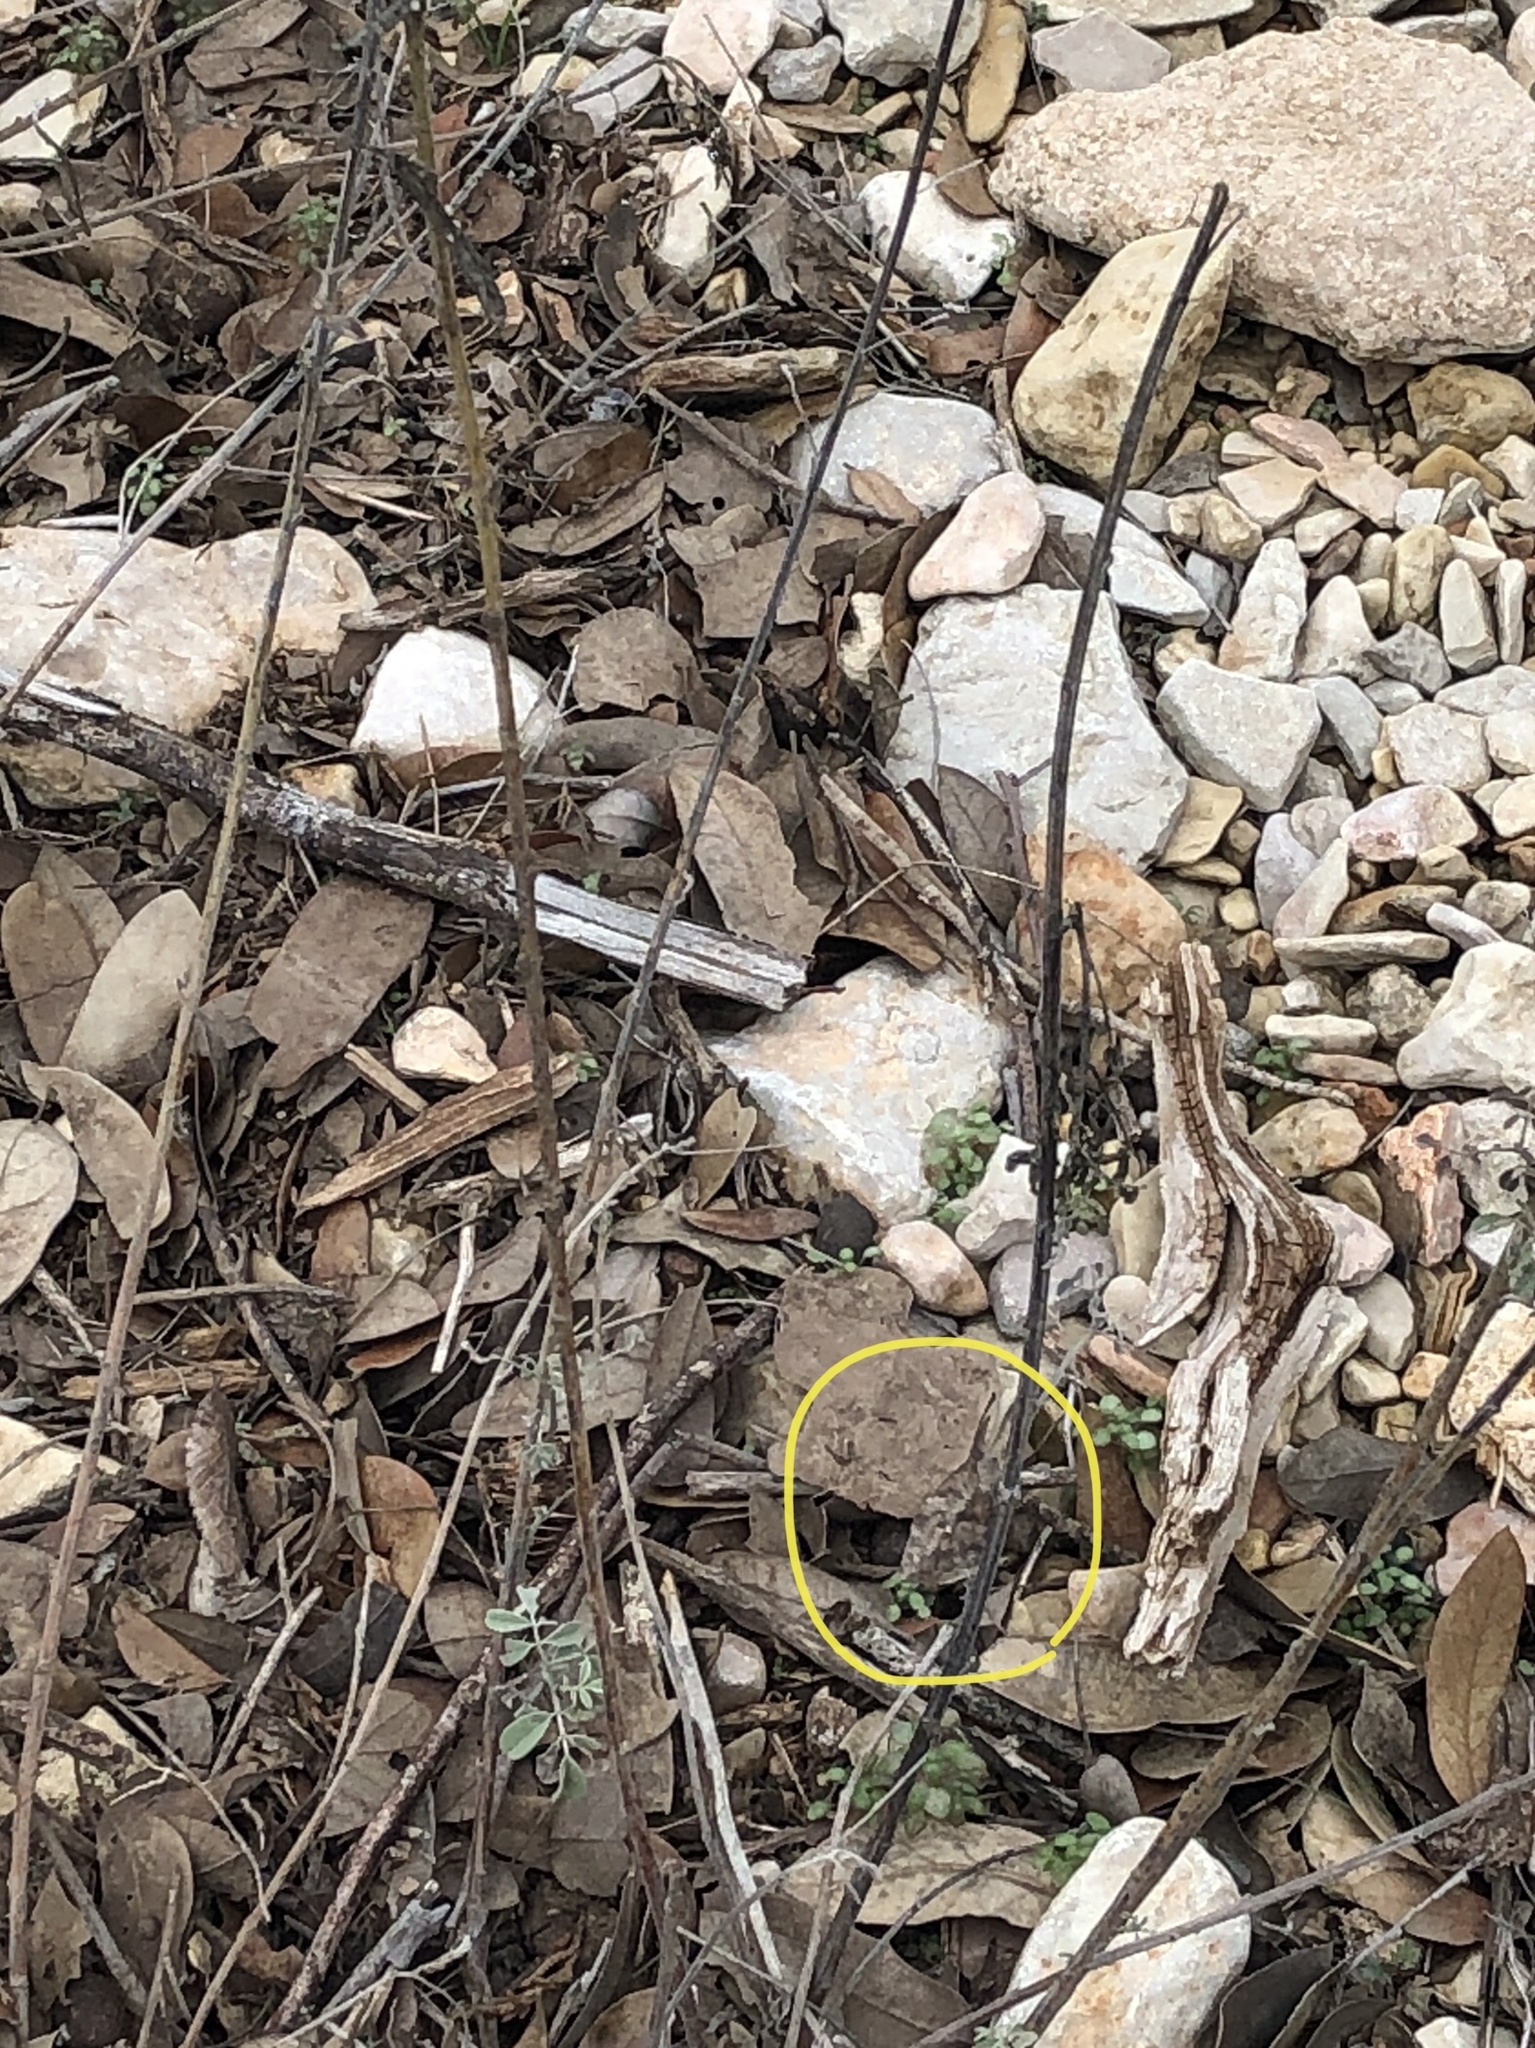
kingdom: Animalia
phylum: Arthropoda
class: Insecta
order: Lepidoptera
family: Nymphalidae
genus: Libytheana
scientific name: Libytheana carinenta
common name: American snout
